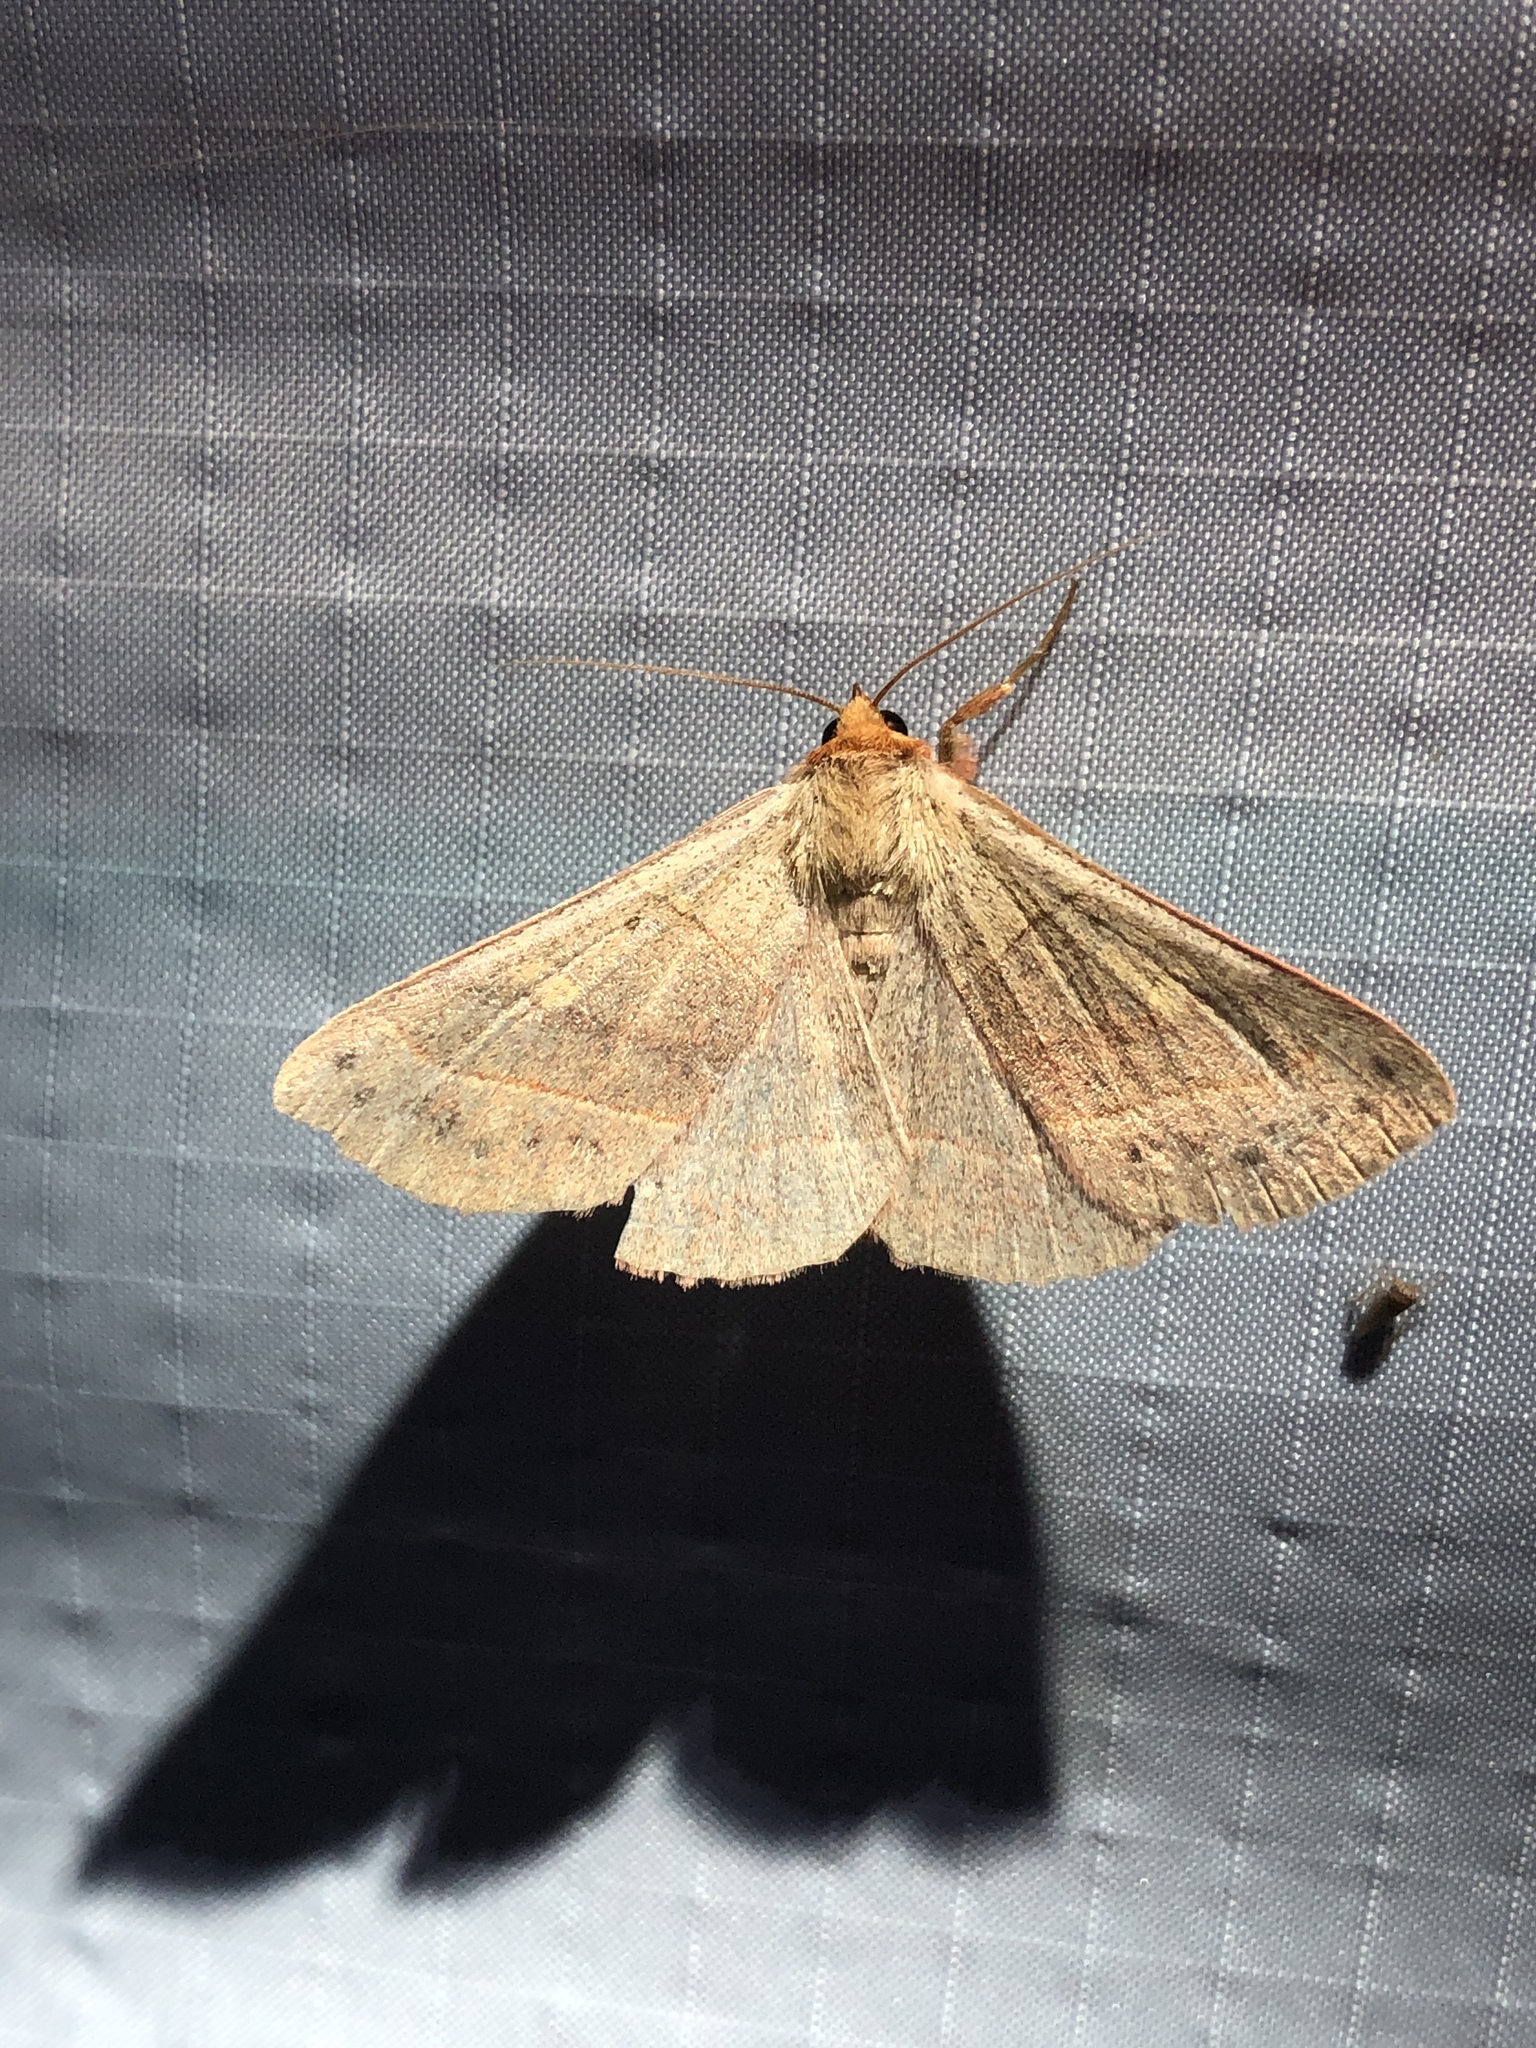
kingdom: Animalia
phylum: Arthropoda
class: Insecta
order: Lepidoptera
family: Erebidae
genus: Panopoda
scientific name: Panopoda rufimargo
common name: Red-lined panopoda moth
